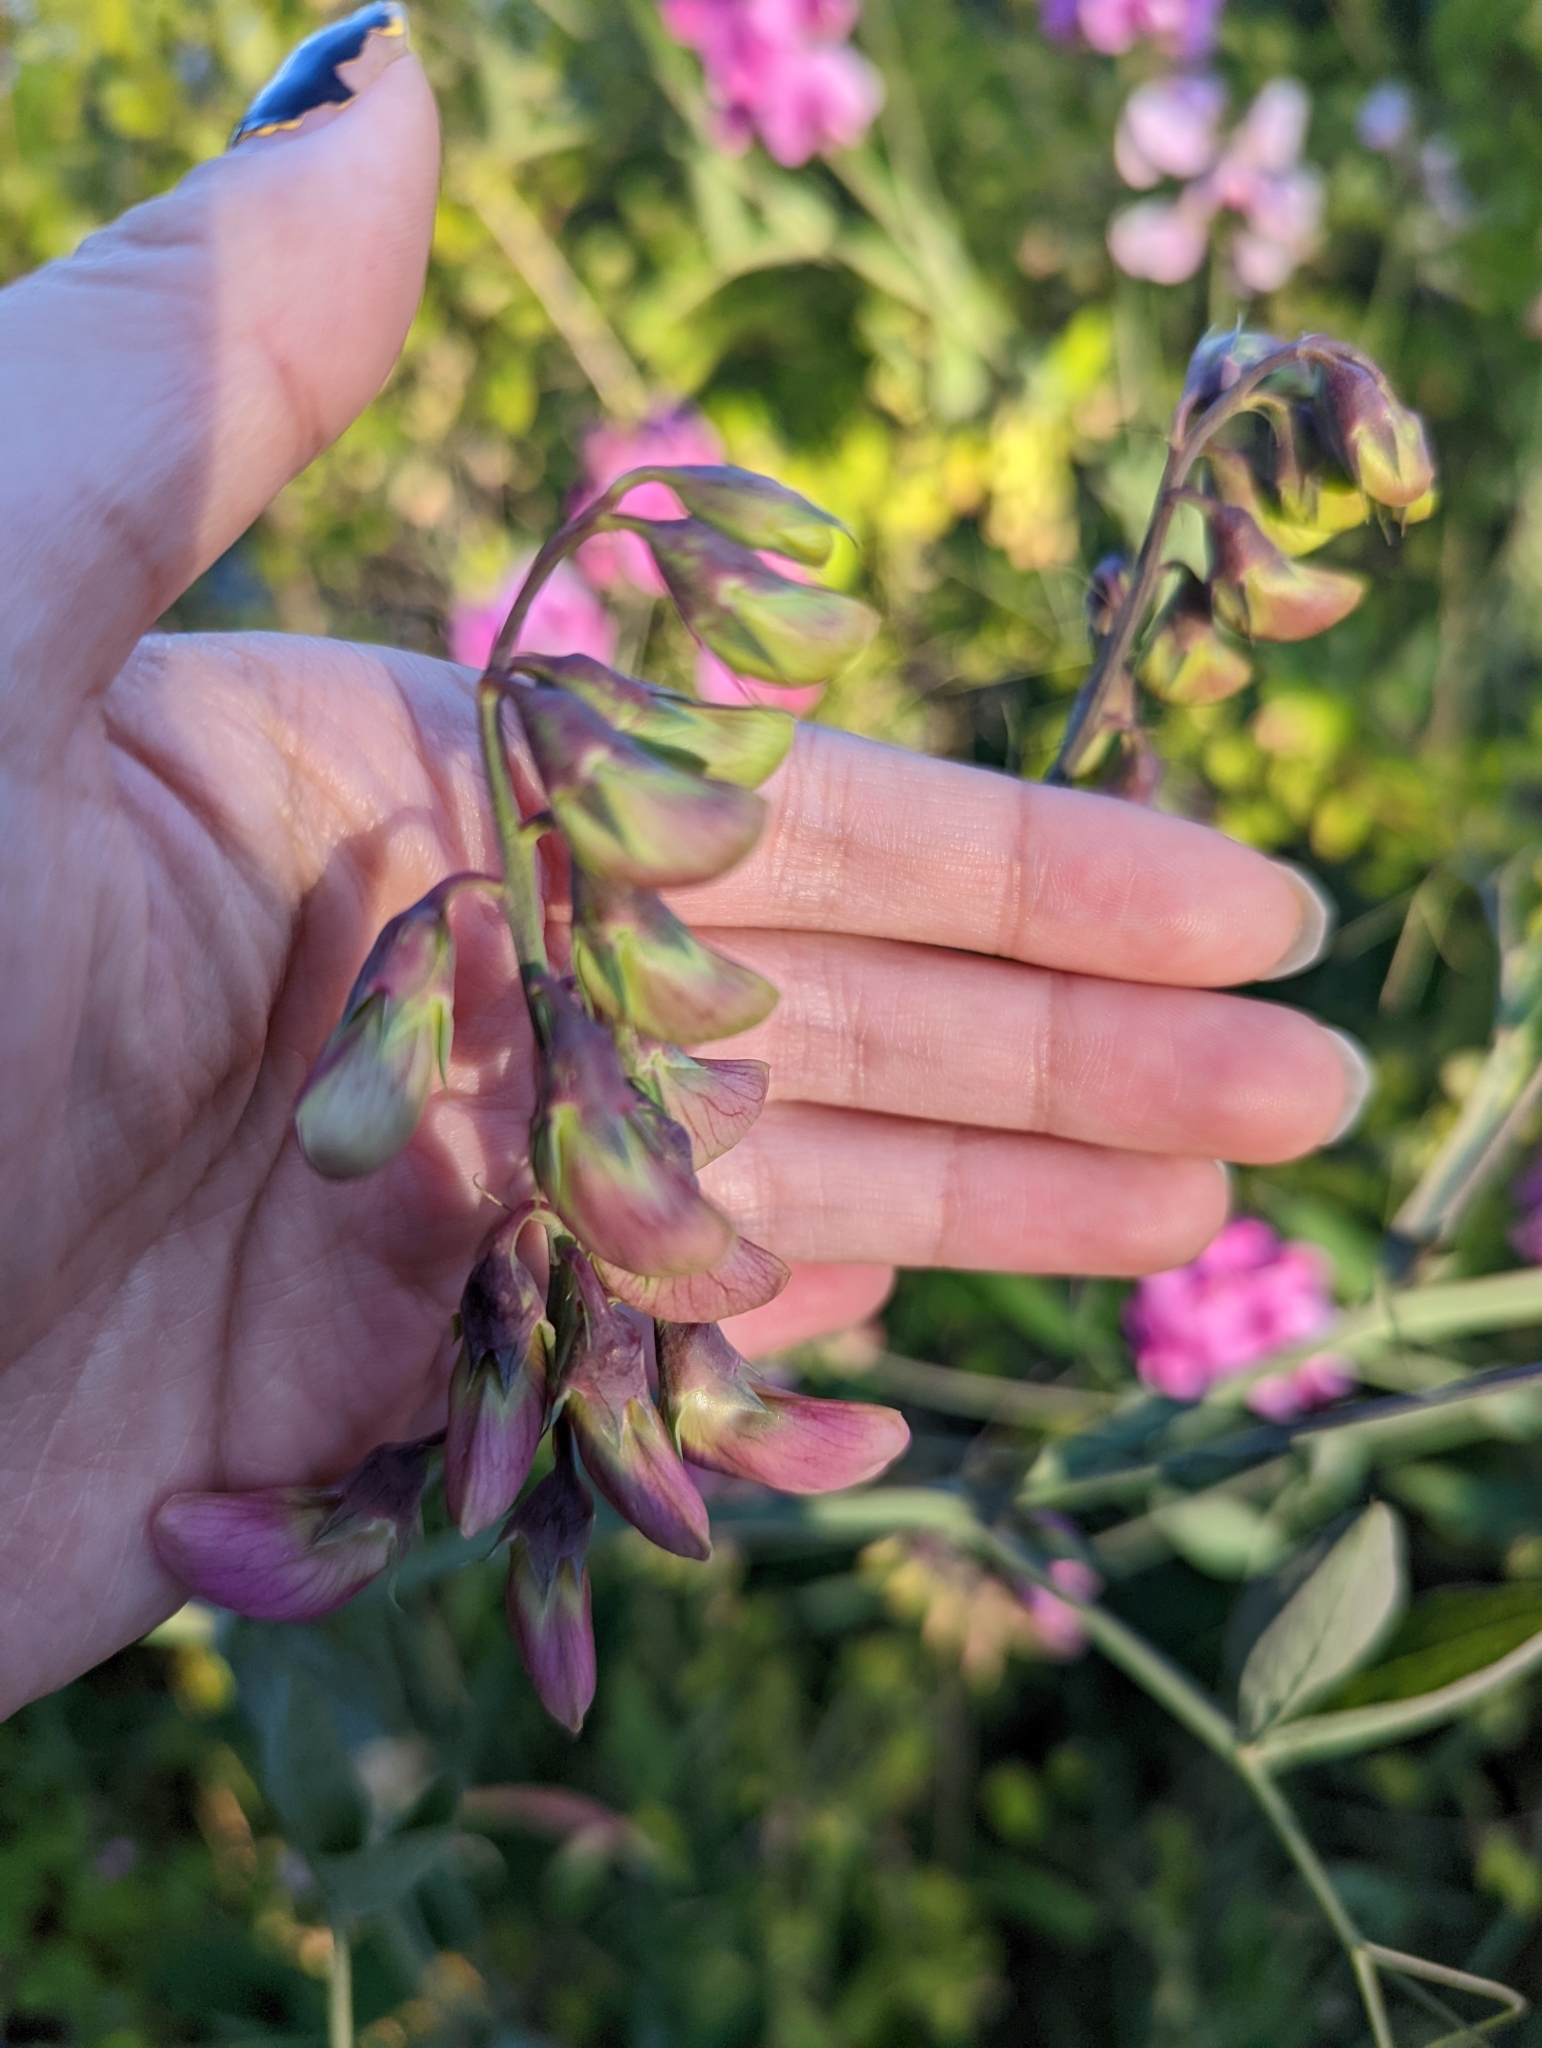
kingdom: Plantae
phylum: Tracheophyta
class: Magnoliopsida
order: Fabales
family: Fabaceae
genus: Lathyrus
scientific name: Lathyrus latifolius
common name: Perennial pea
